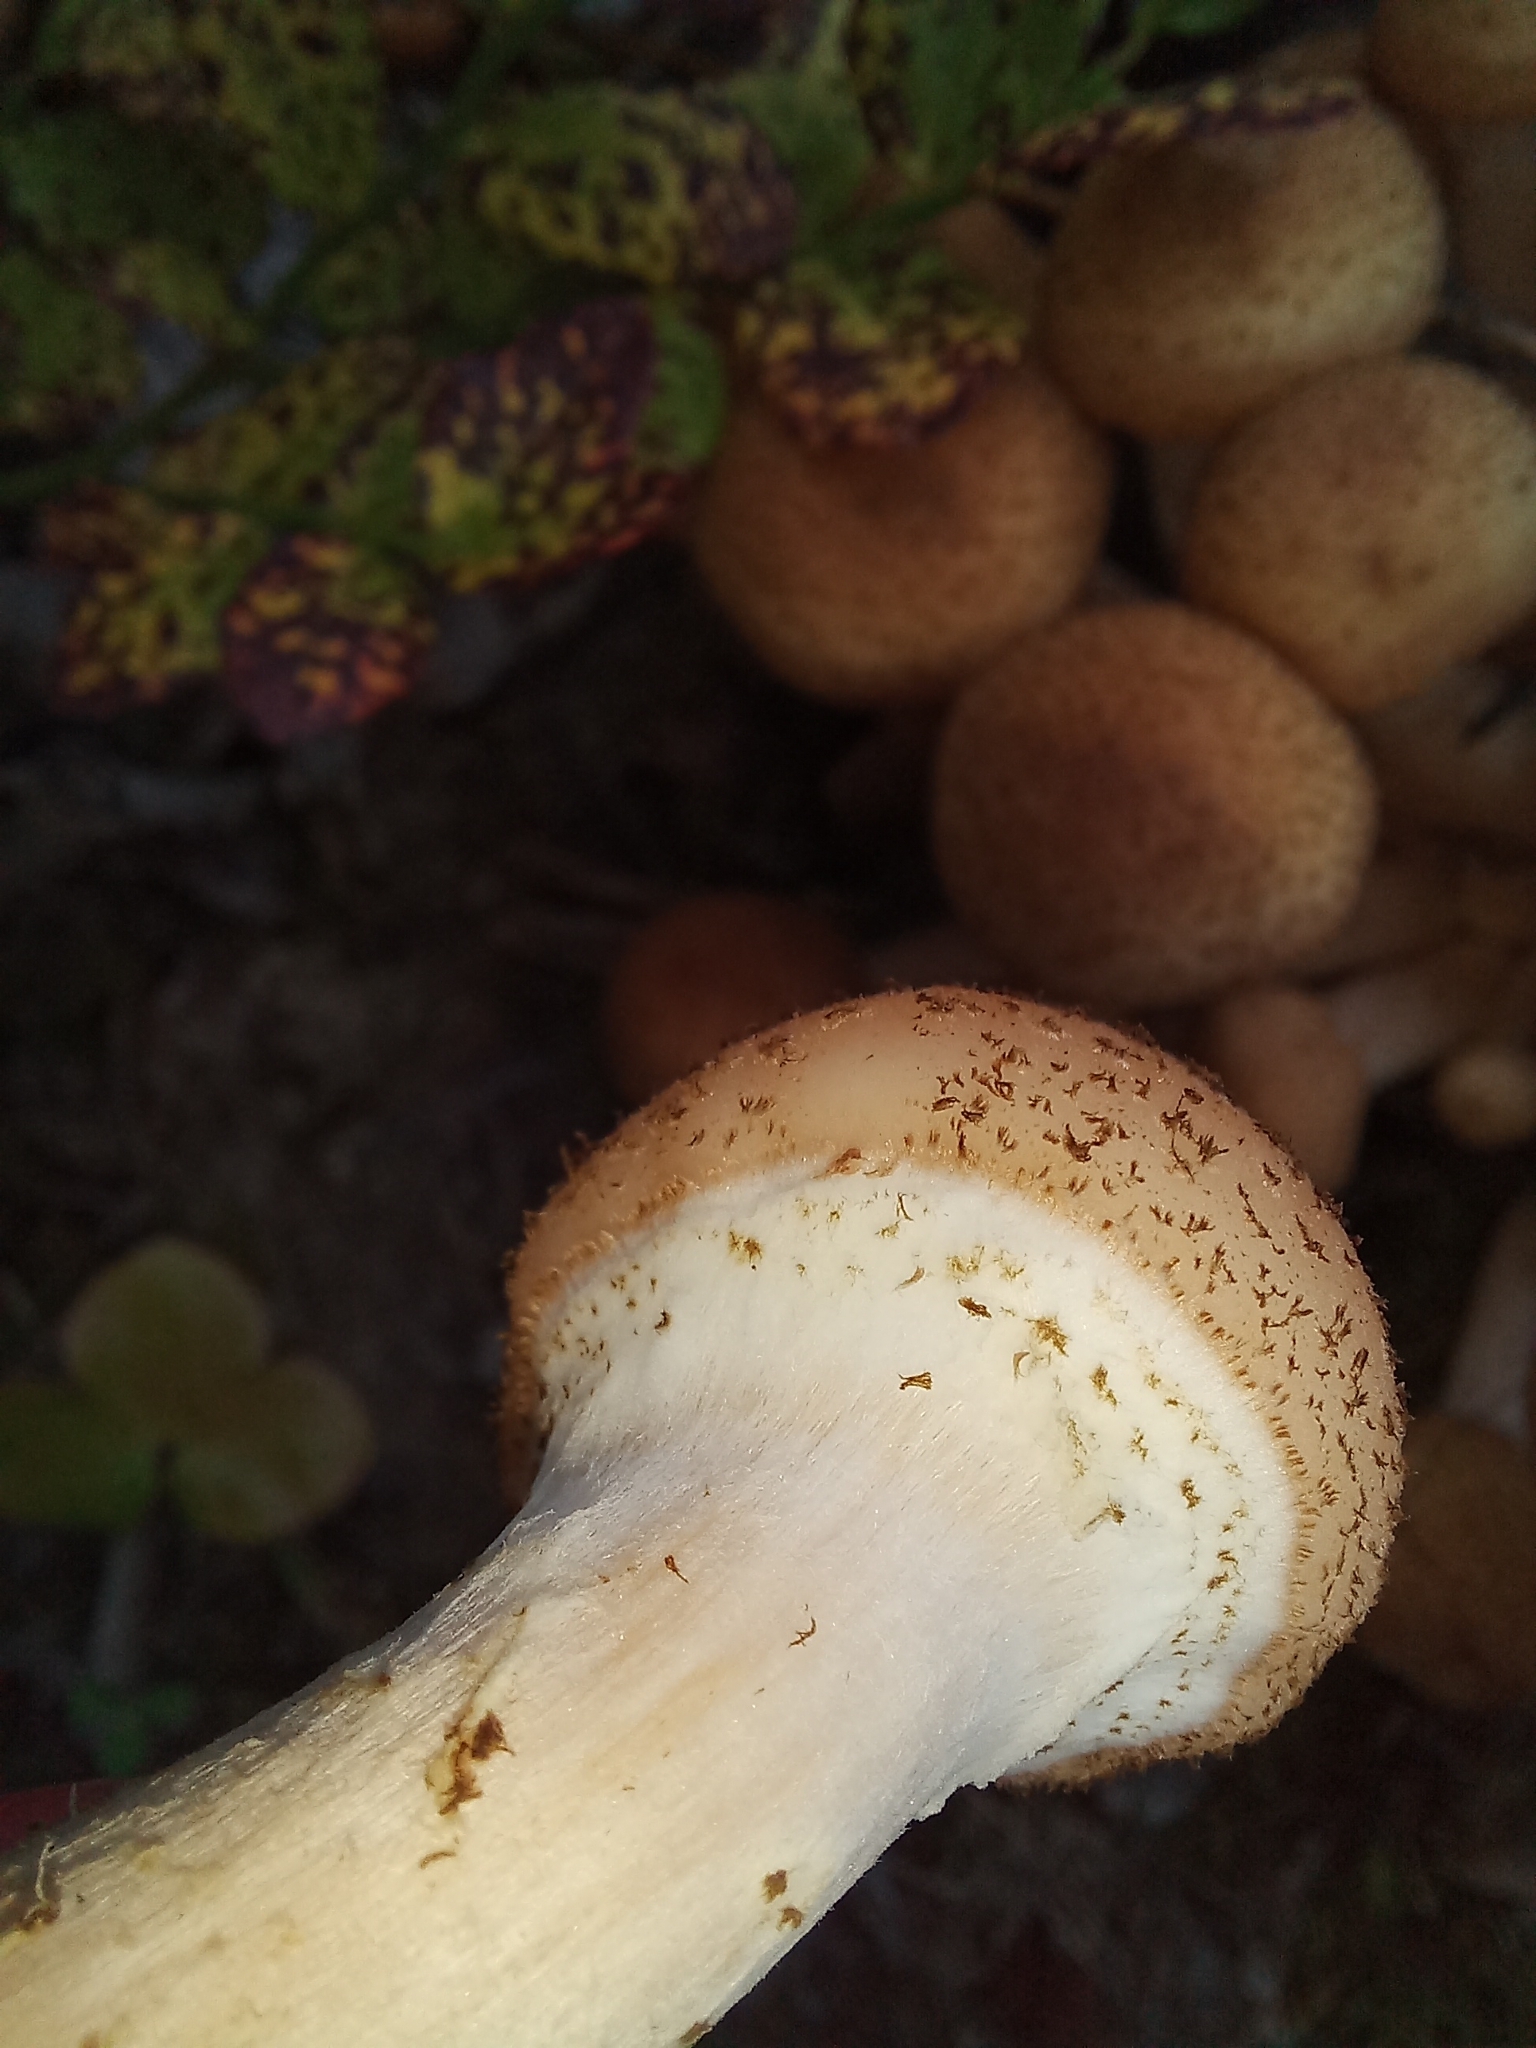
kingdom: Fungi
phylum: Basidiomycota
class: Agaricomycetes
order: Agaricales
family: Physalacriaceae
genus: Armillaria
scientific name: Armillaria borealis
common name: Northern honey fungus
